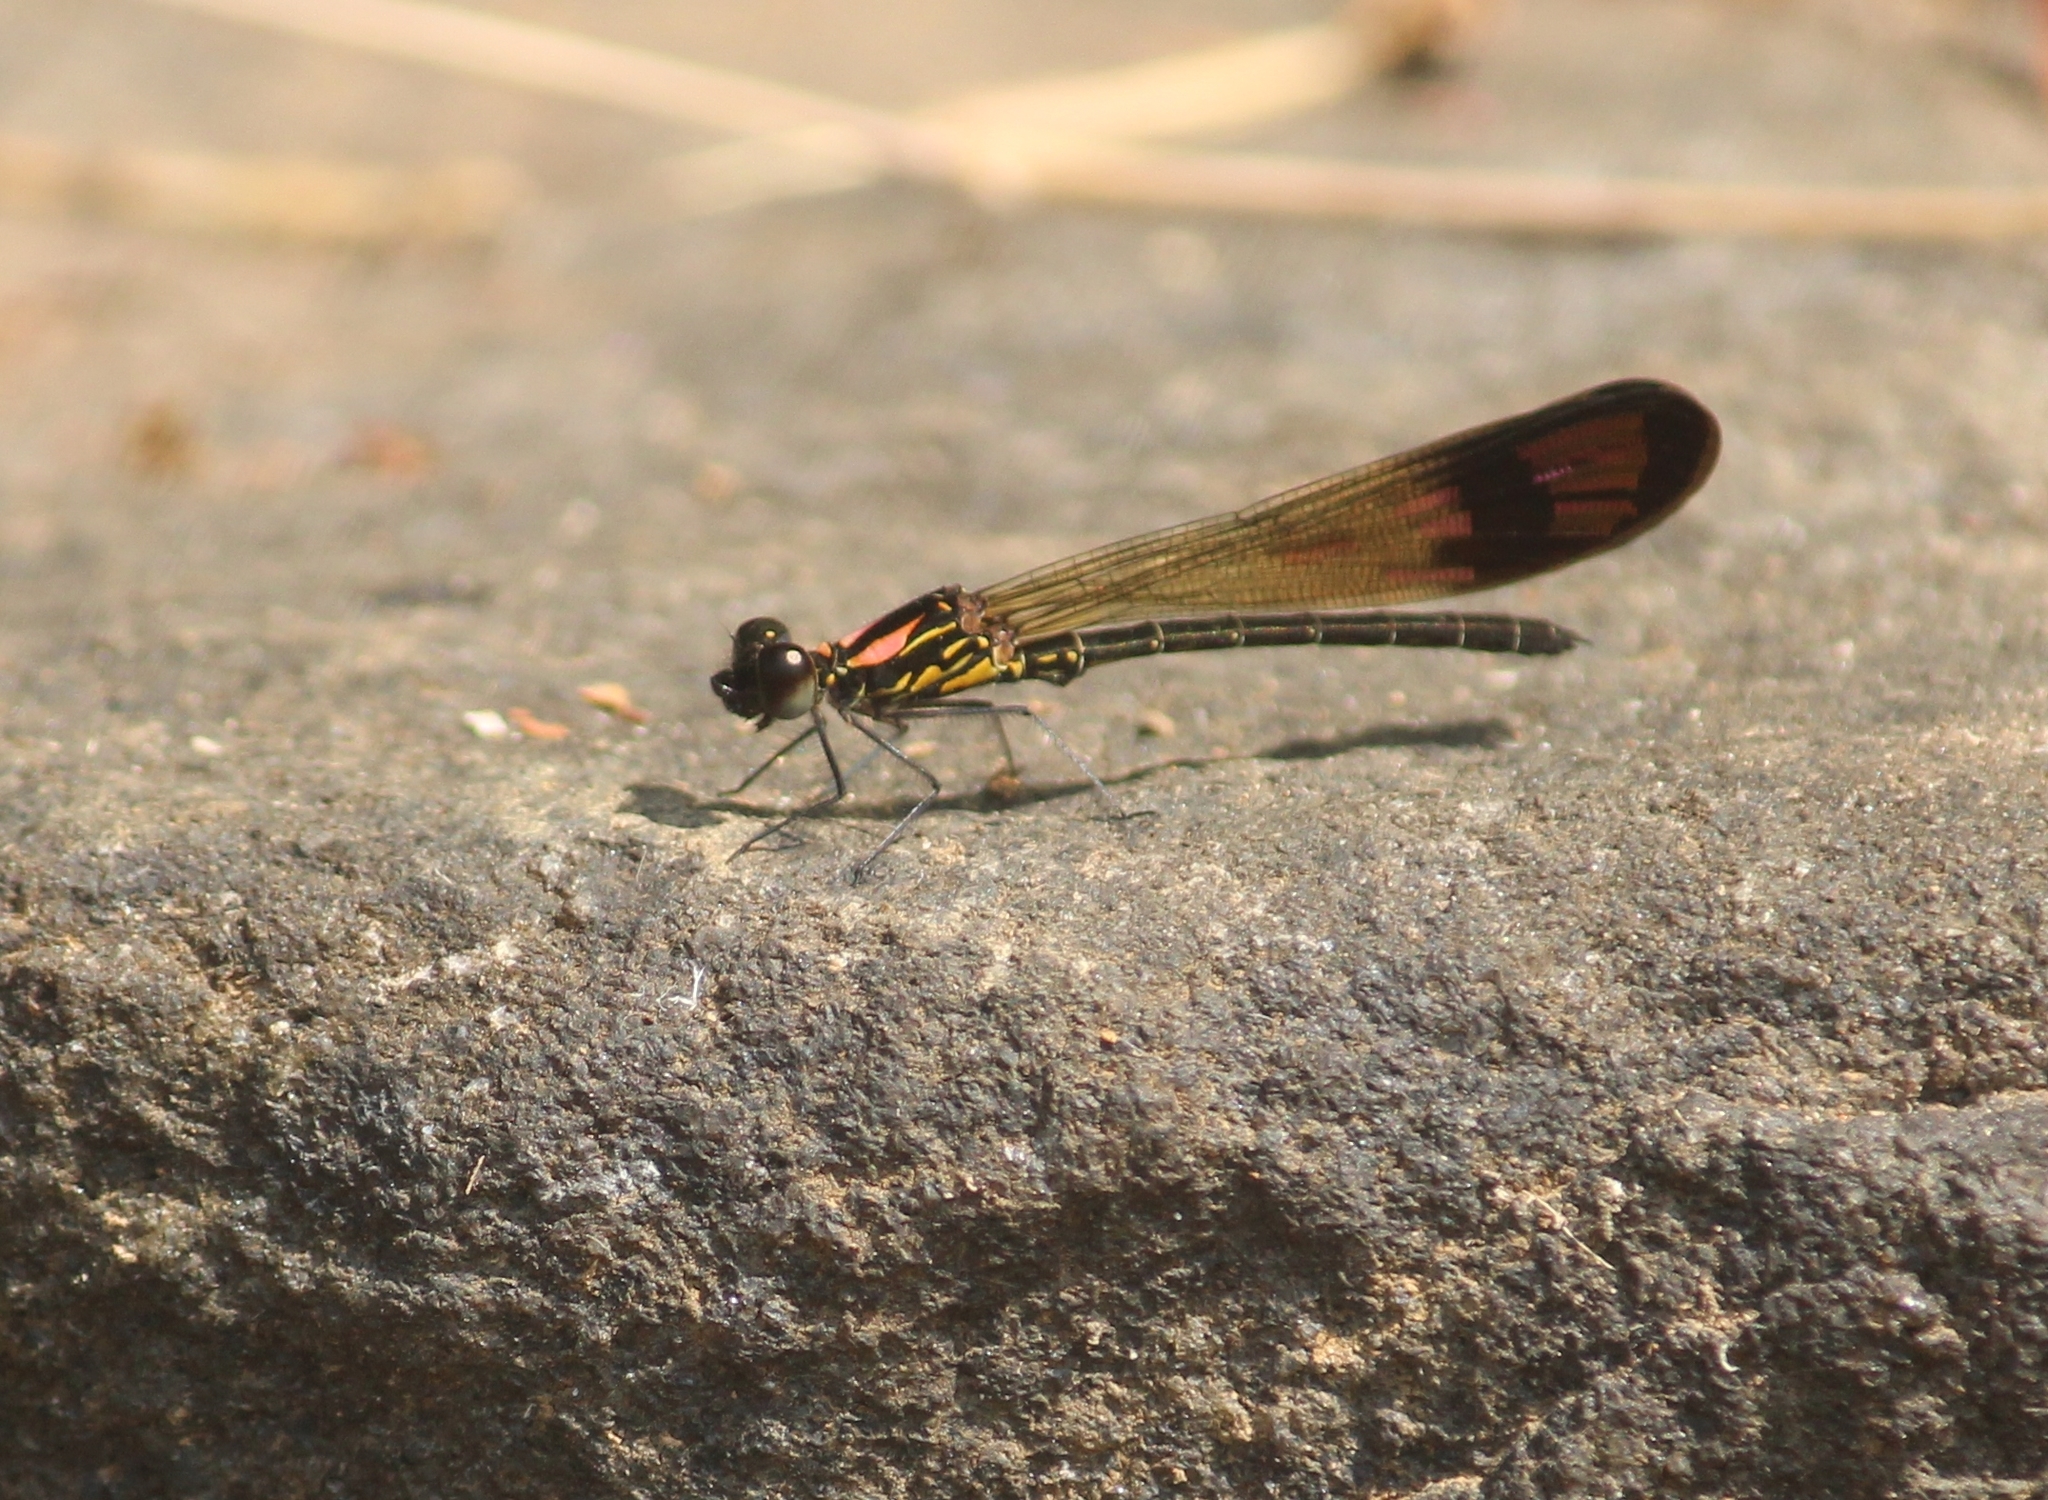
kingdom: Animalia
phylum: Arthropoda
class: Insecta
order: Odonata
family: Chlorocyphidae
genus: Heliocypha
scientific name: Heliocypha bisignata
